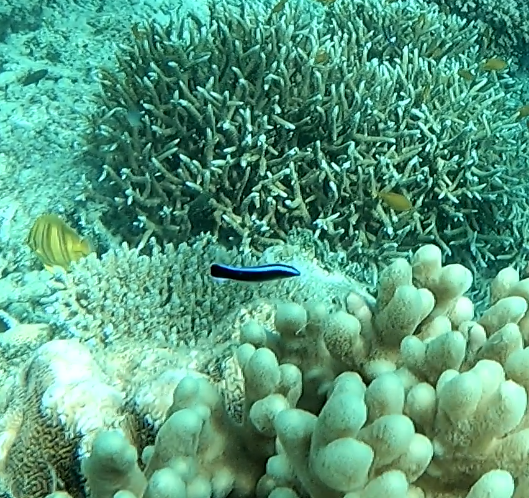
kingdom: Animalia
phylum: Chordata
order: Perciformes
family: Labridae
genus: Labroides
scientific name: Labroides dimidiatus
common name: Blue diesel wrasse
